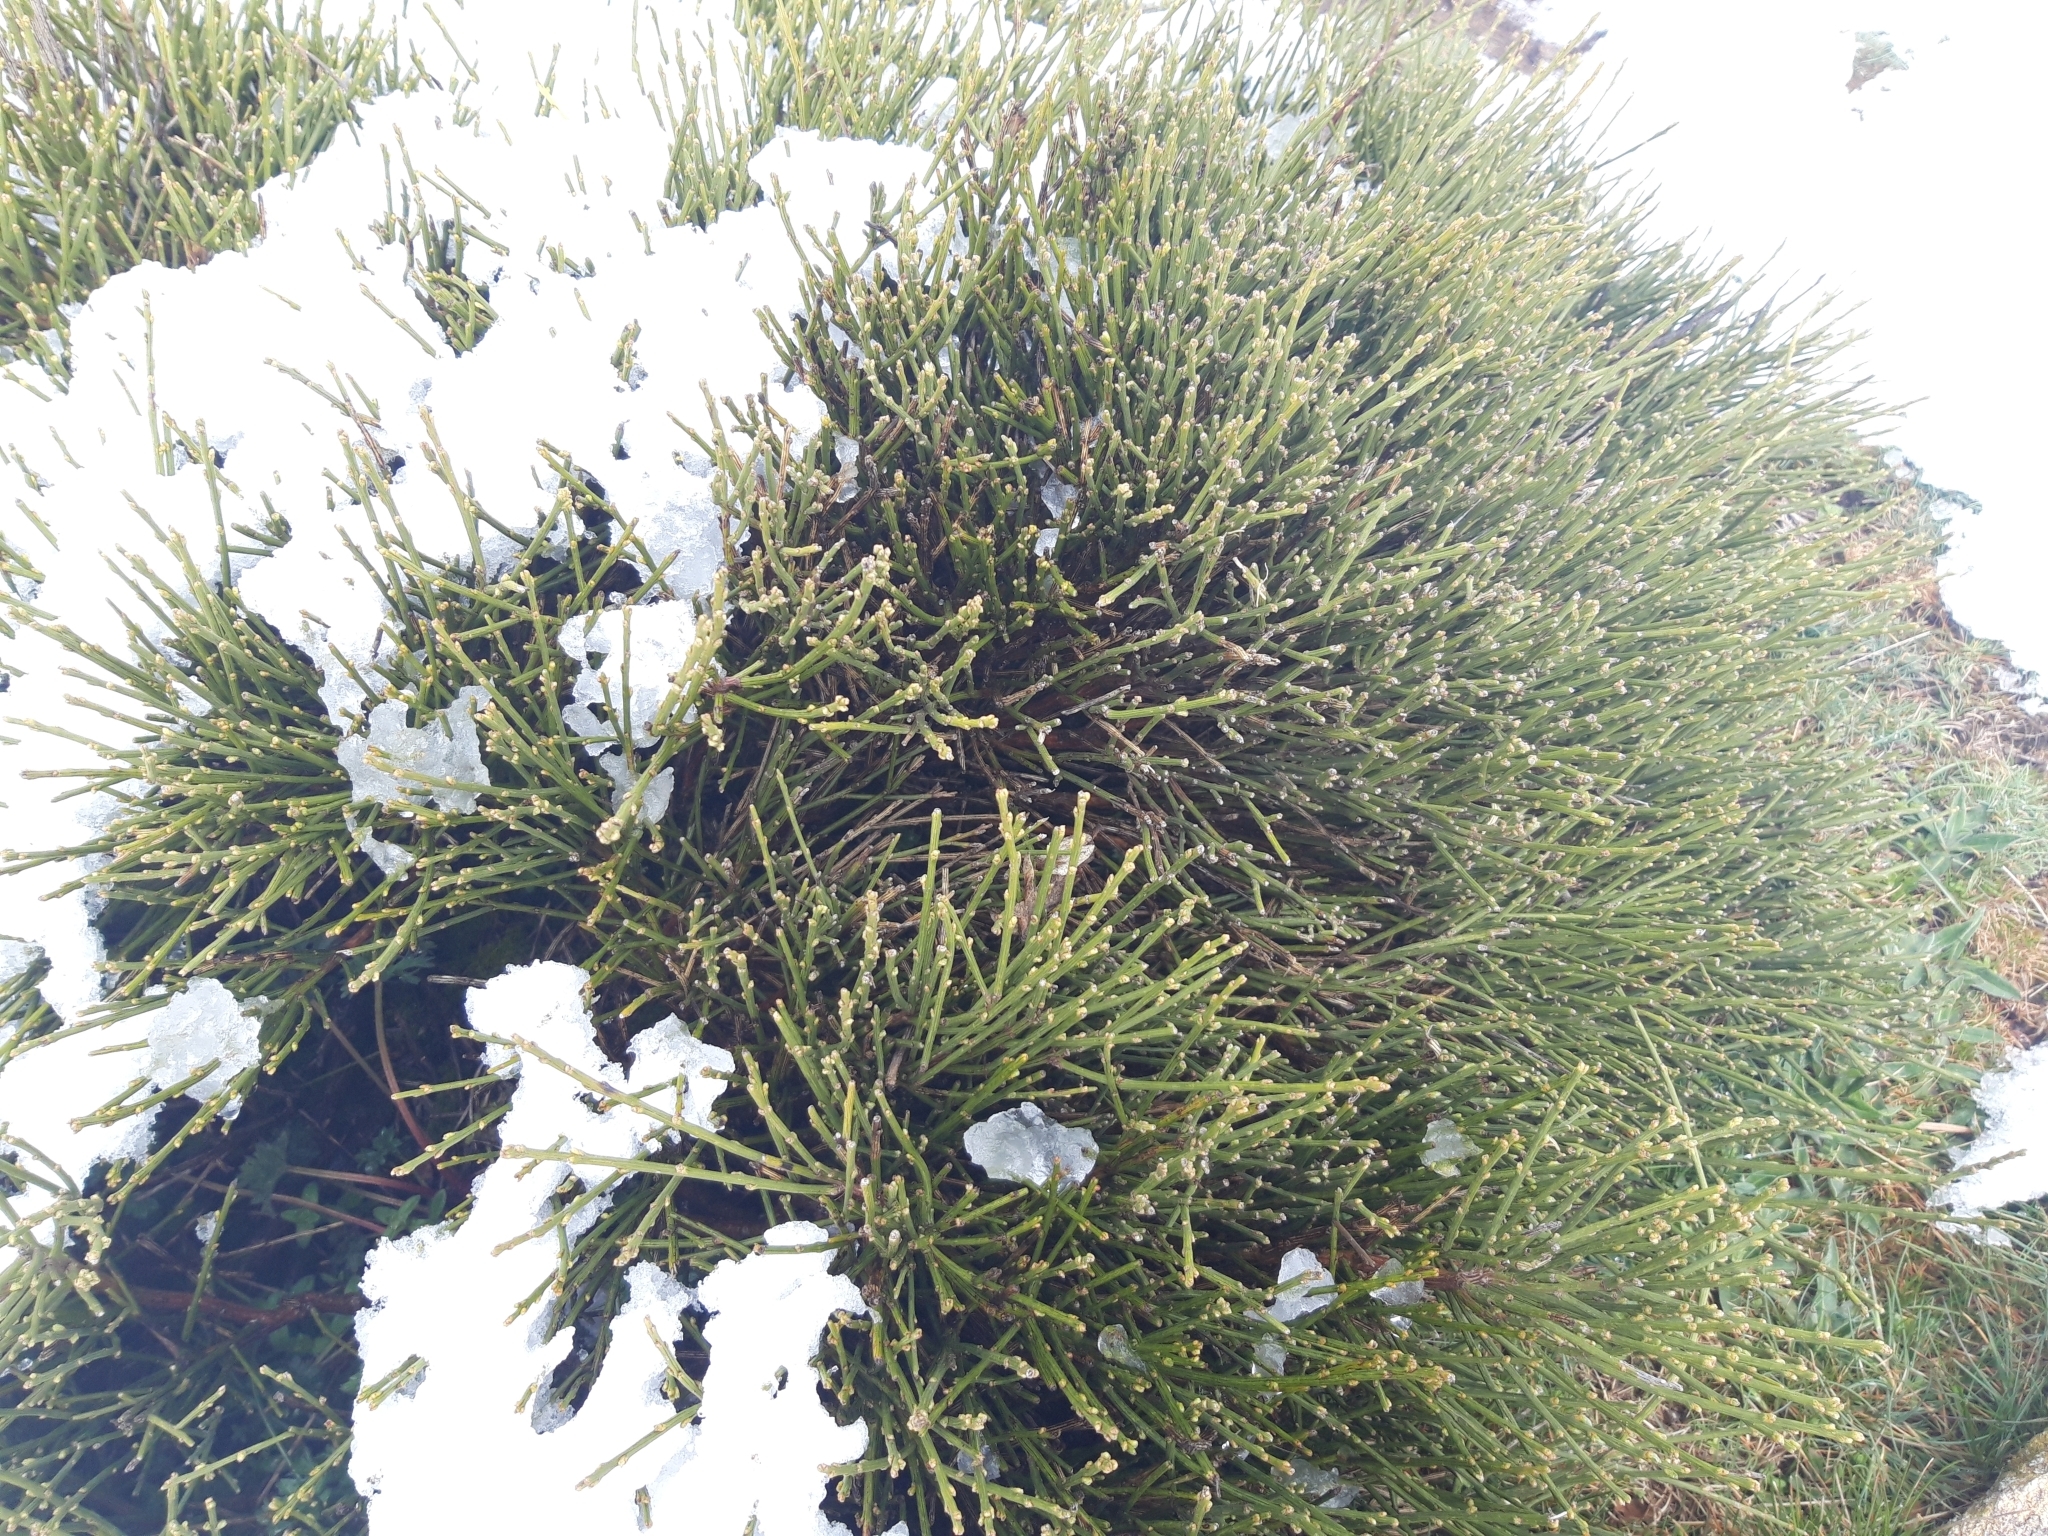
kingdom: Plantae
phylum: Tracheophyta
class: Magnoliopsida
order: Fabales
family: Fabaceae
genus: Cytisus
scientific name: Cytisus oromediterraneus
